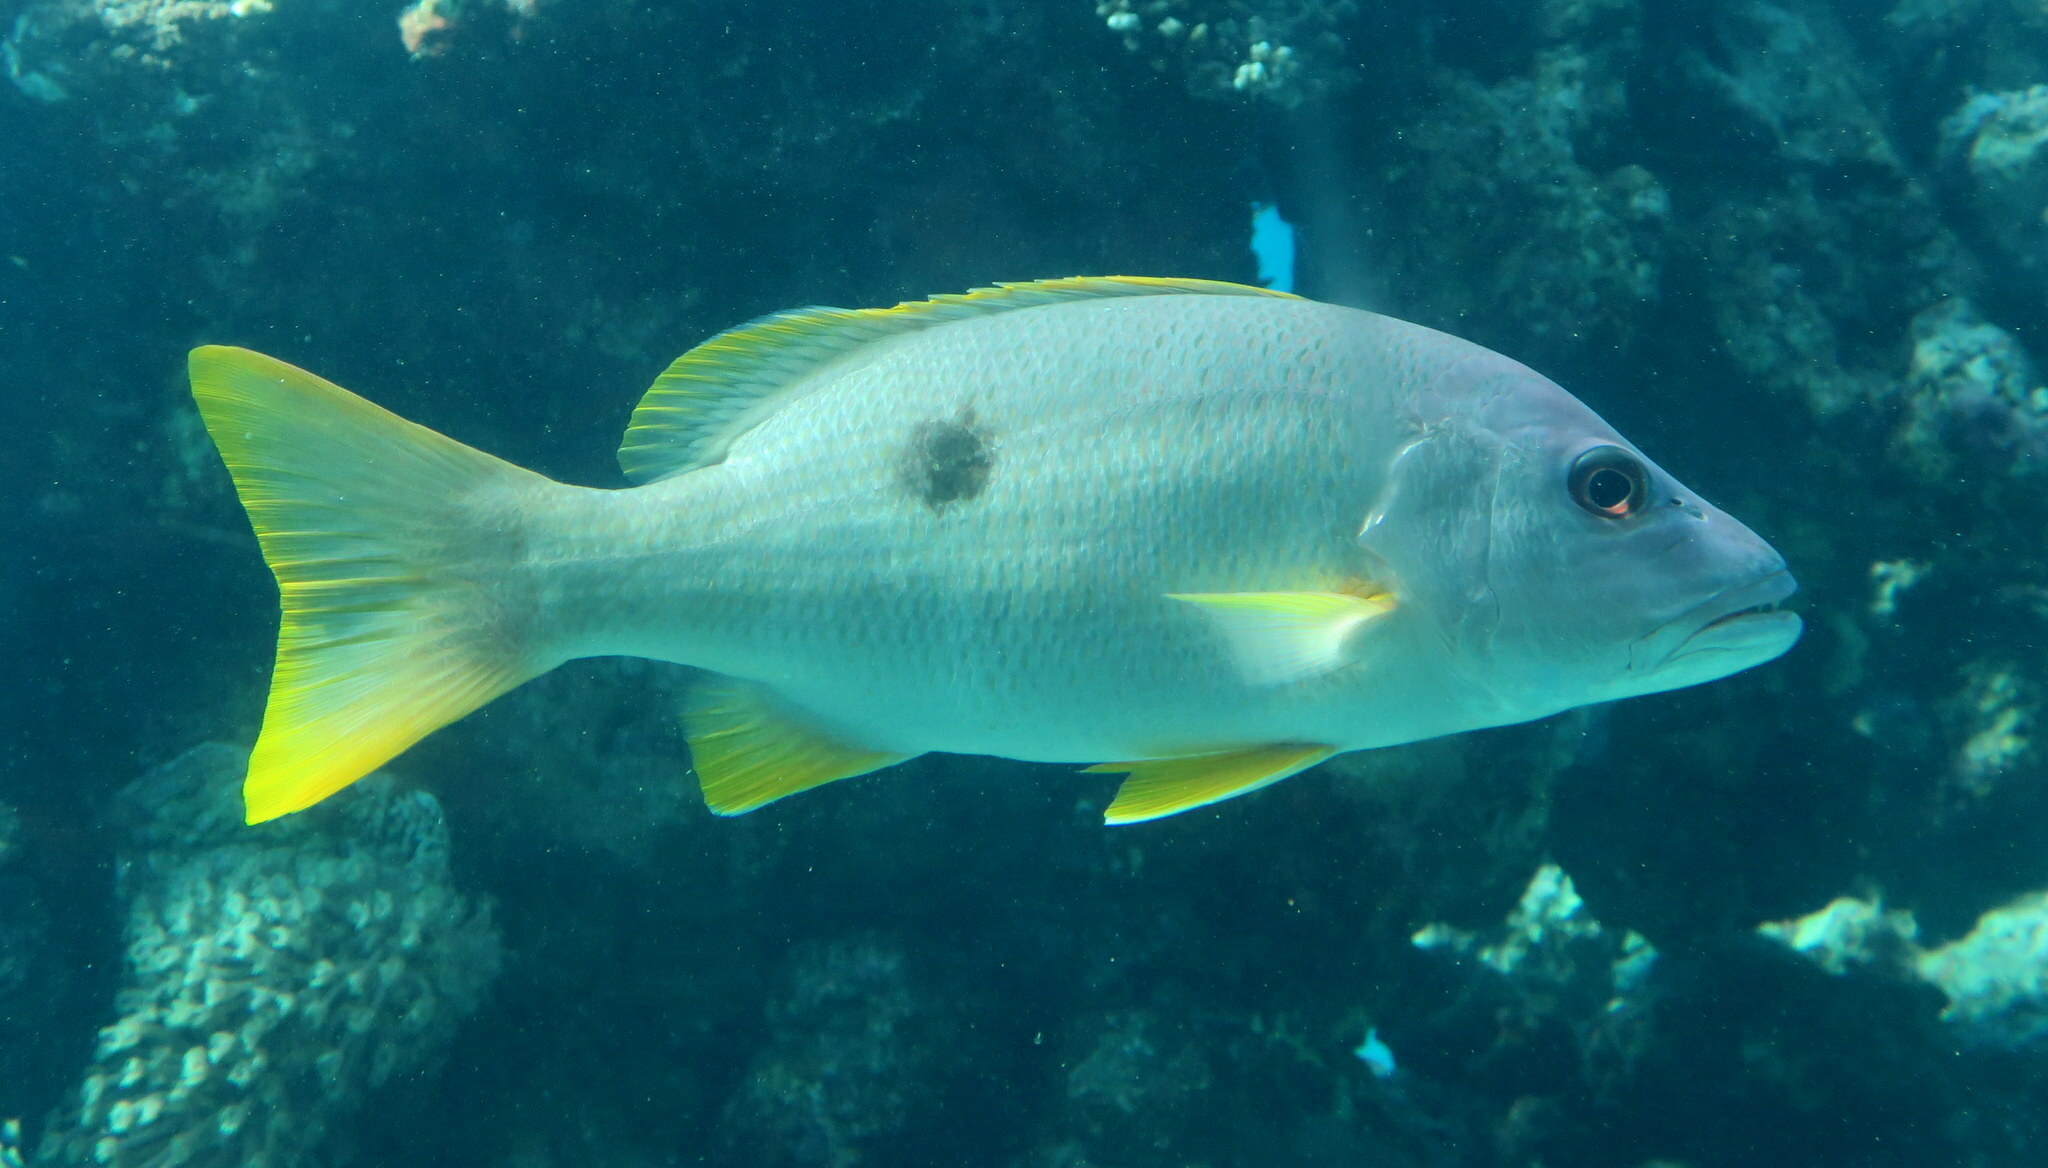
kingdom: Animalia
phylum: Chordata
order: Perciformes
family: Lutjanidae
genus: Lutjanus
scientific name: Lutjanus monostigma
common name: Onespot snapper
